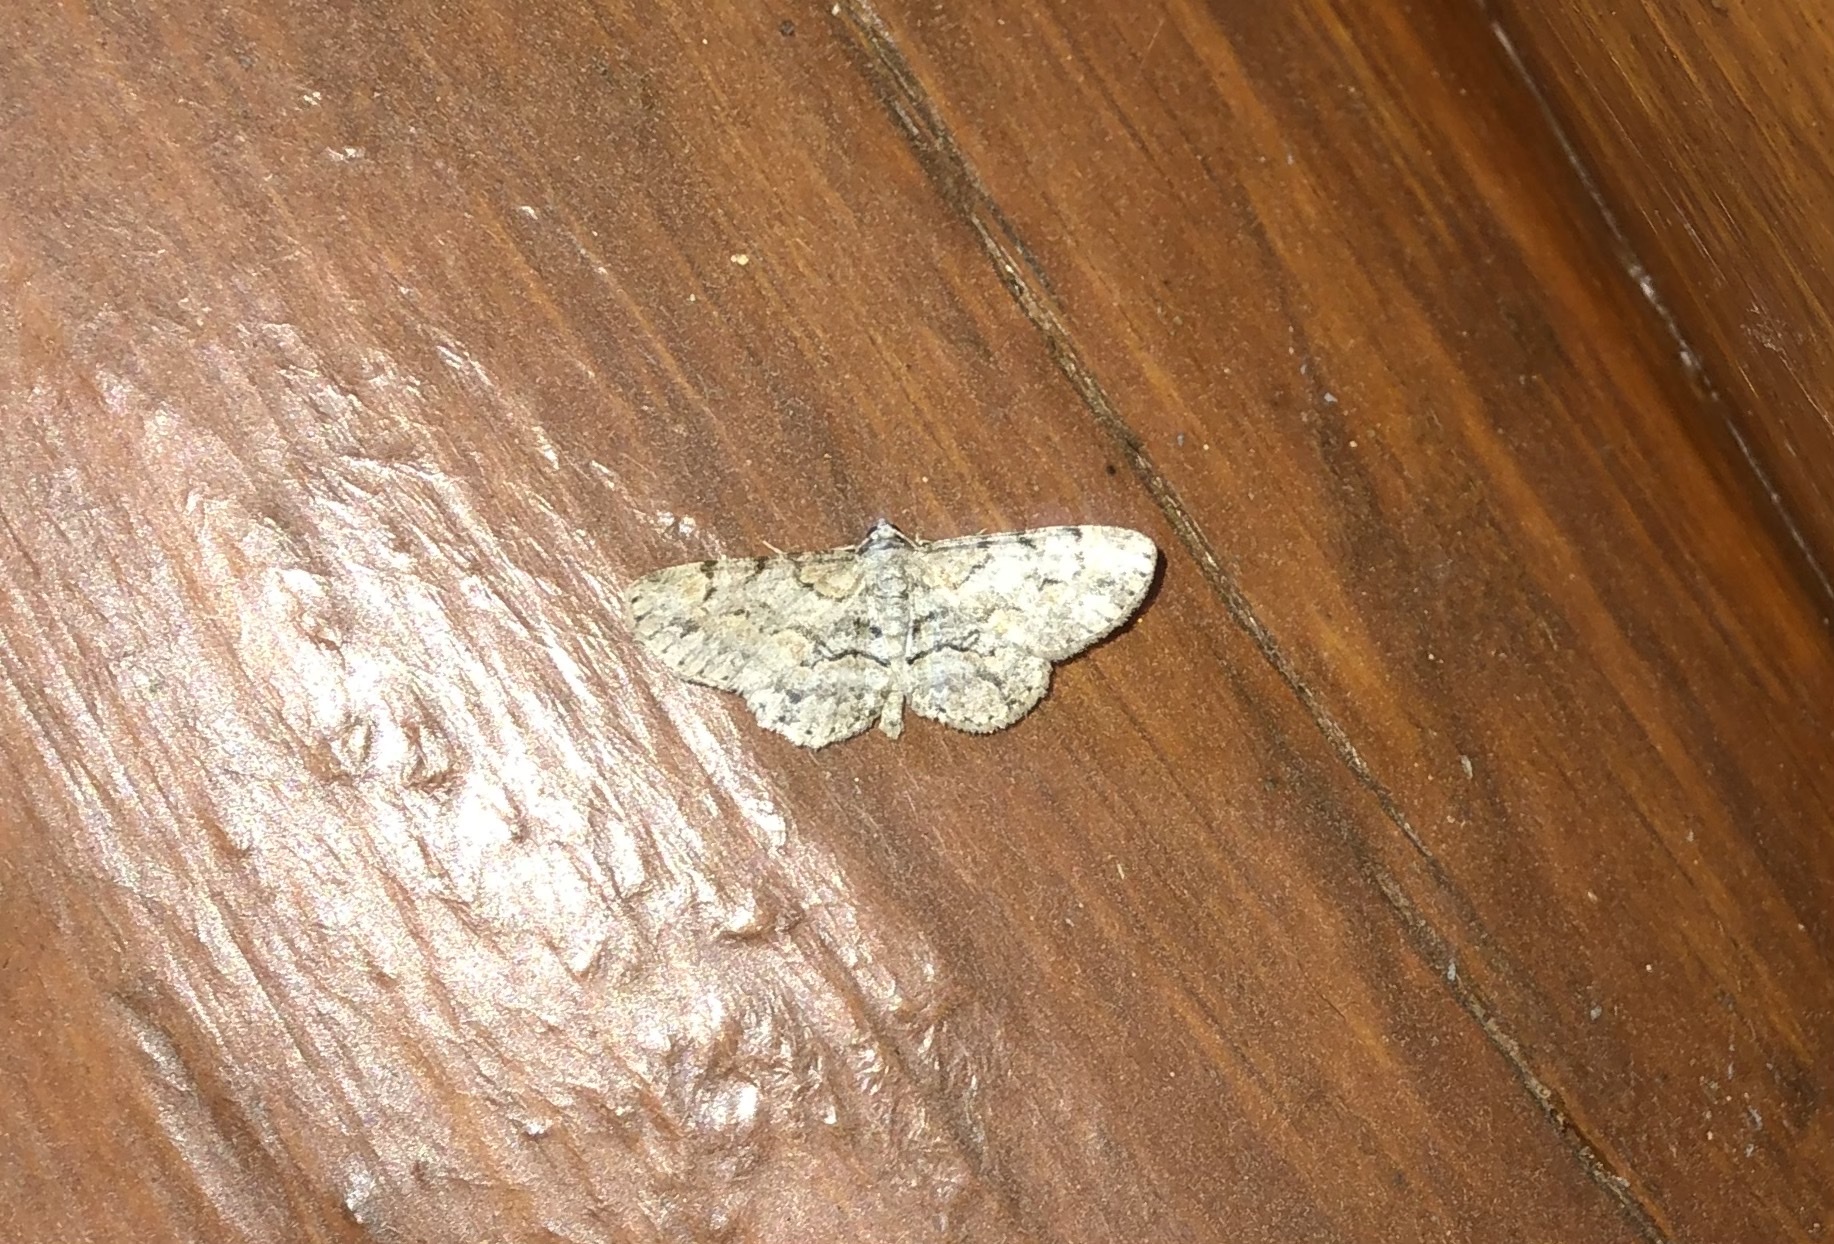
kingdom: Animalia
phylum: Arthropoda
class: Insecta
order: Lepidoptera
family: Geometridae
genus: Iridopsis
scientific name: Iridopsis ephyraria
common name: Pale-winged gray
